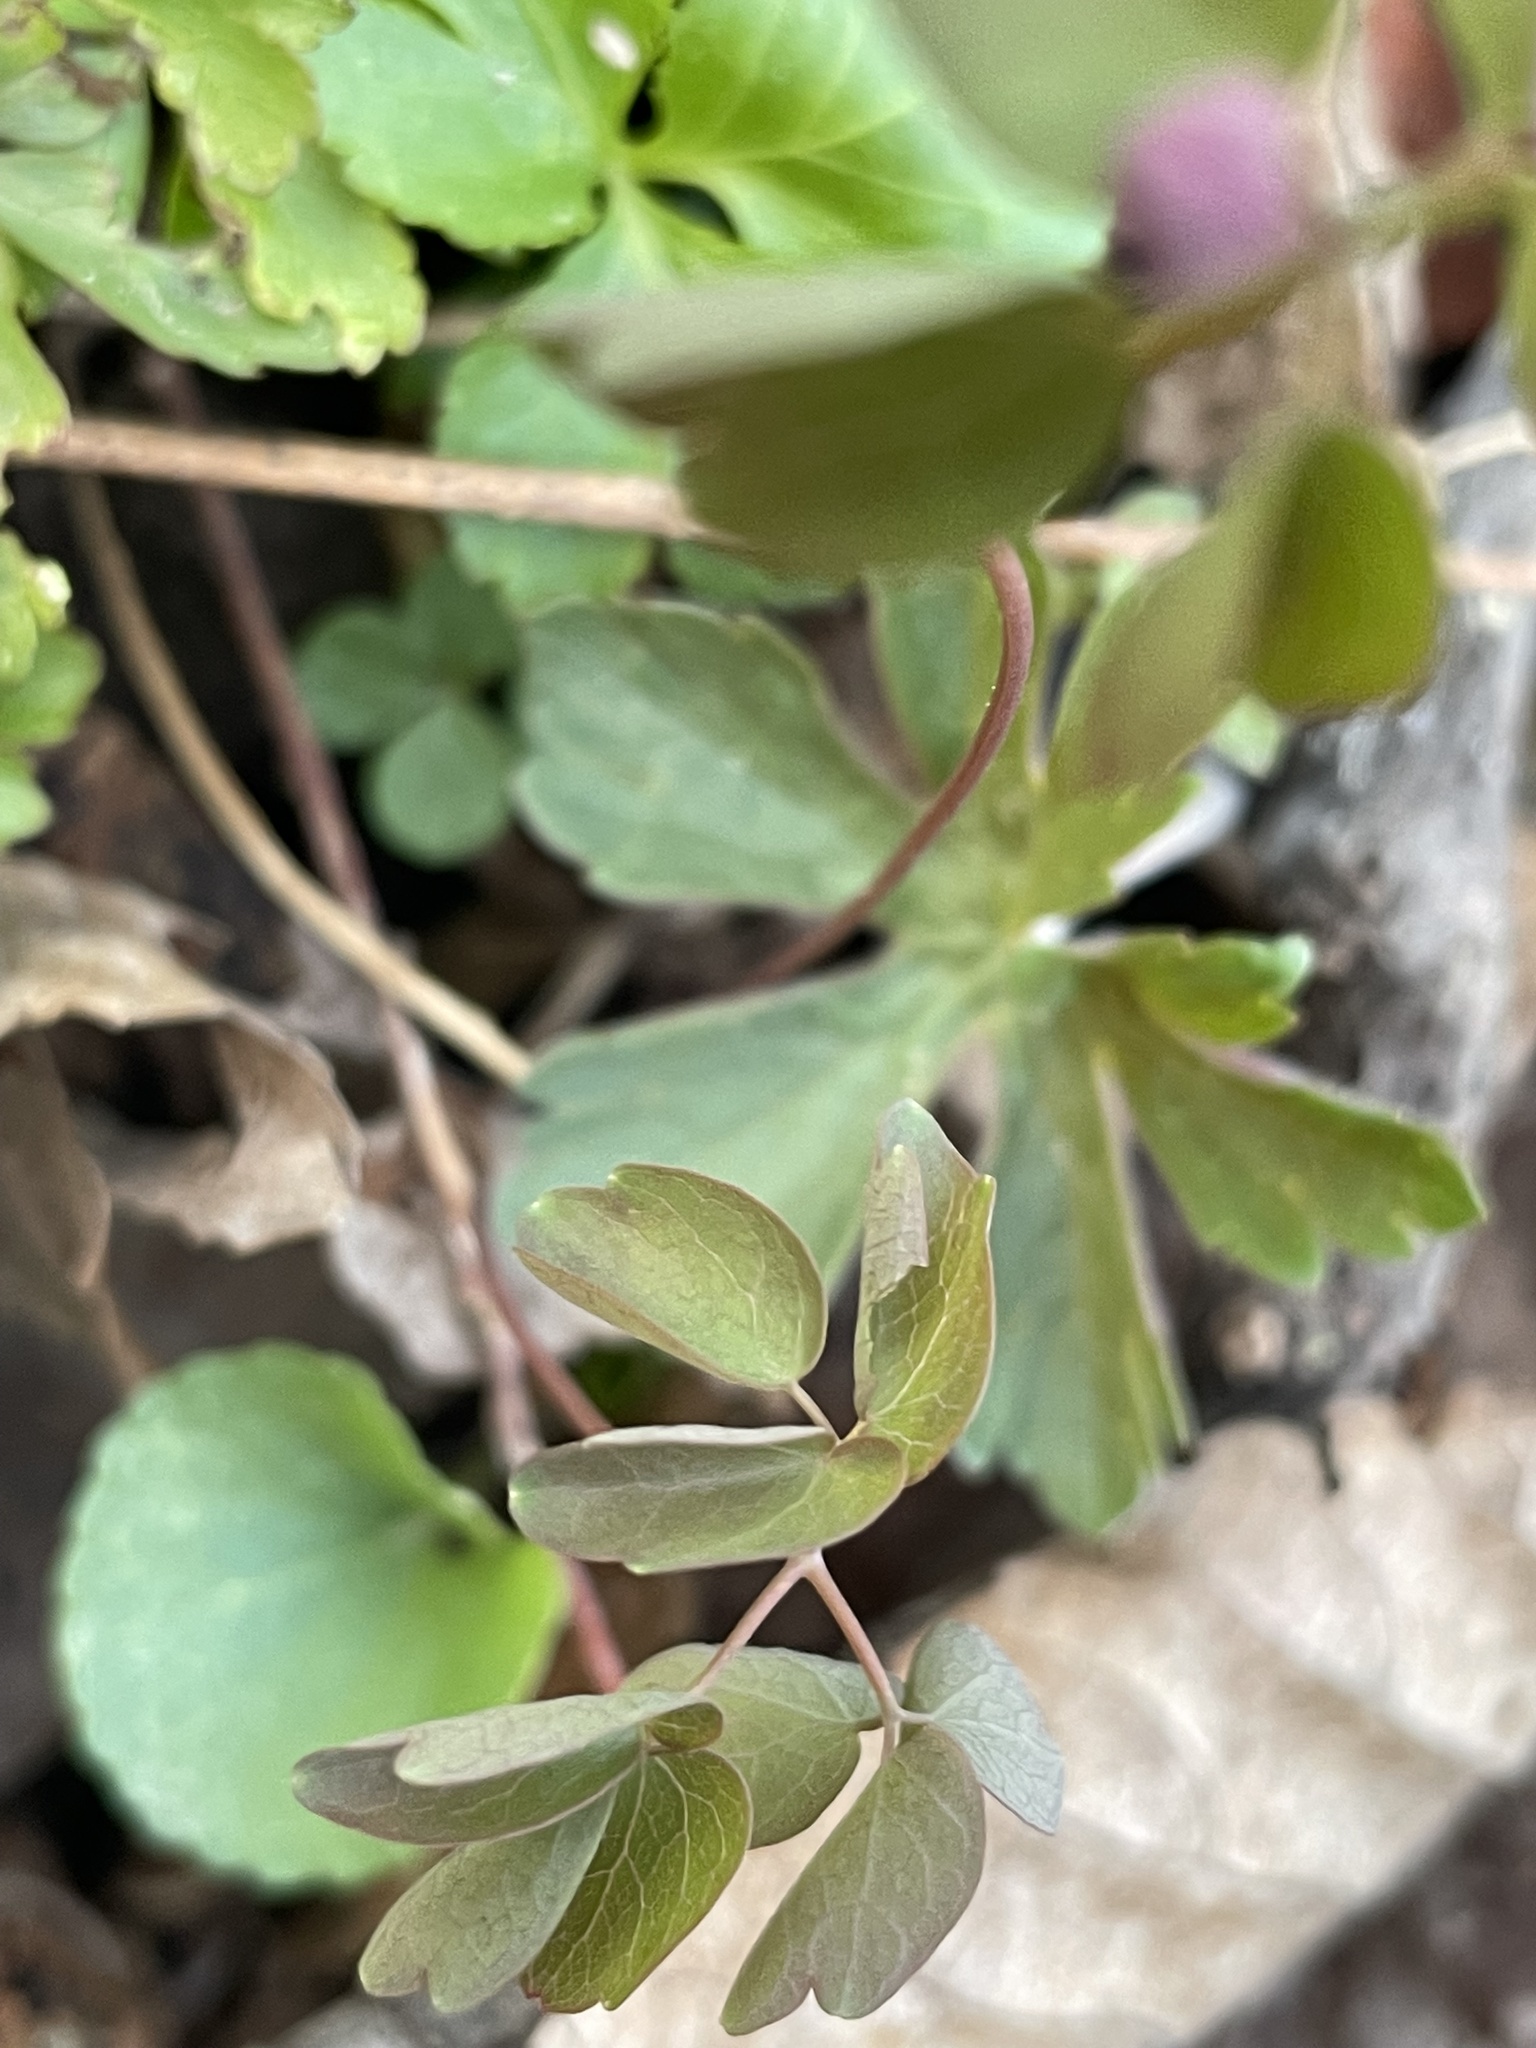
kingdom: Plantae
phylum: Tracheophyta
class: Magnoliopsida
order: Ranunculales
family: Ranunculaceae
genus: Thalictrum
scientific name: Thalictrum thalictroides
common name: Rue-anemone
